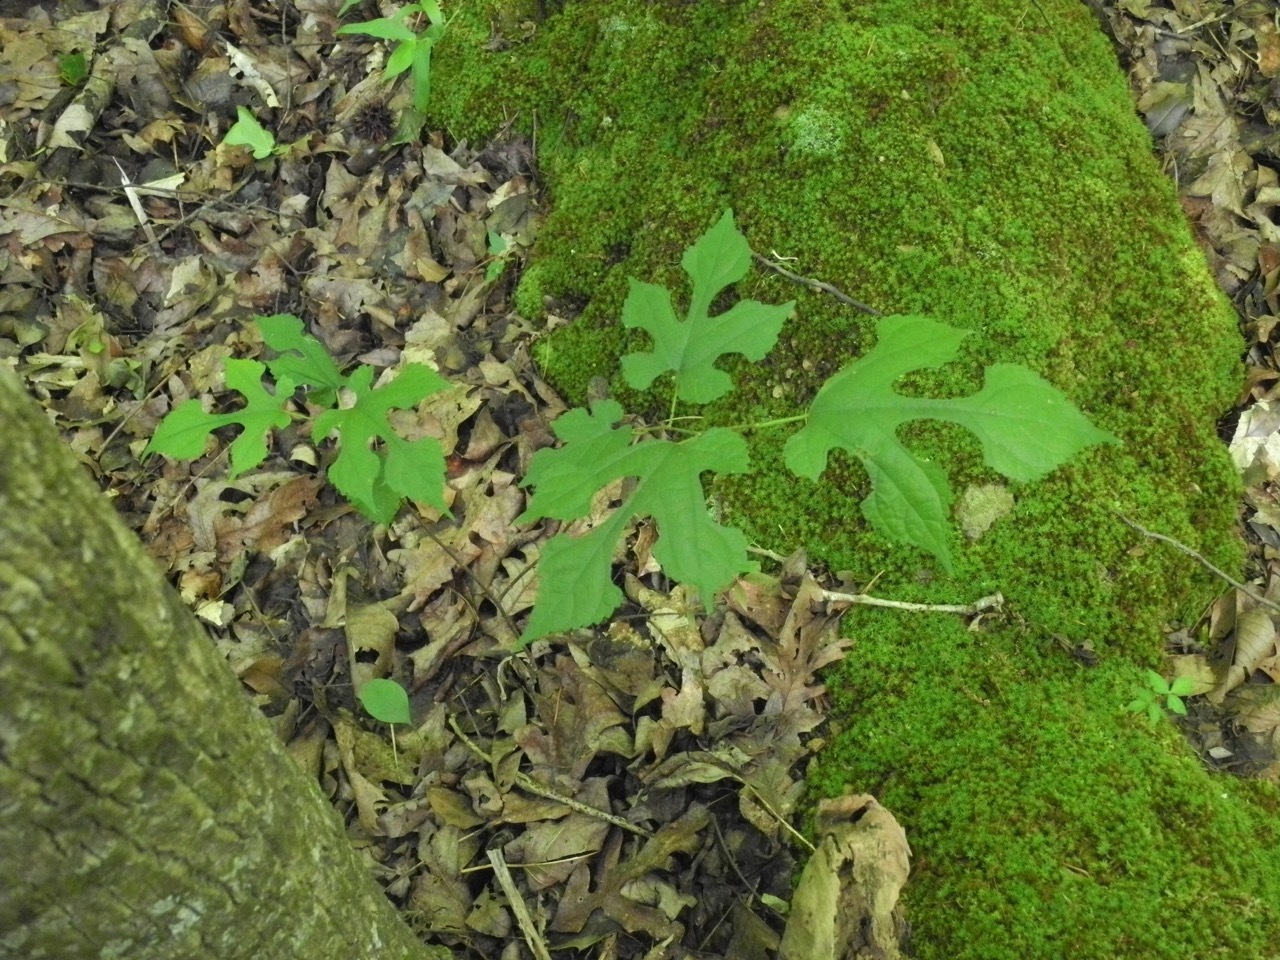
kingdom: Plantae
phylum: Tracheophyta
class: Magnoliopsida
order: Rosales
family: Moraceae
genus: Morus
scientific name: Morus rubra
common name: Red mulberry
